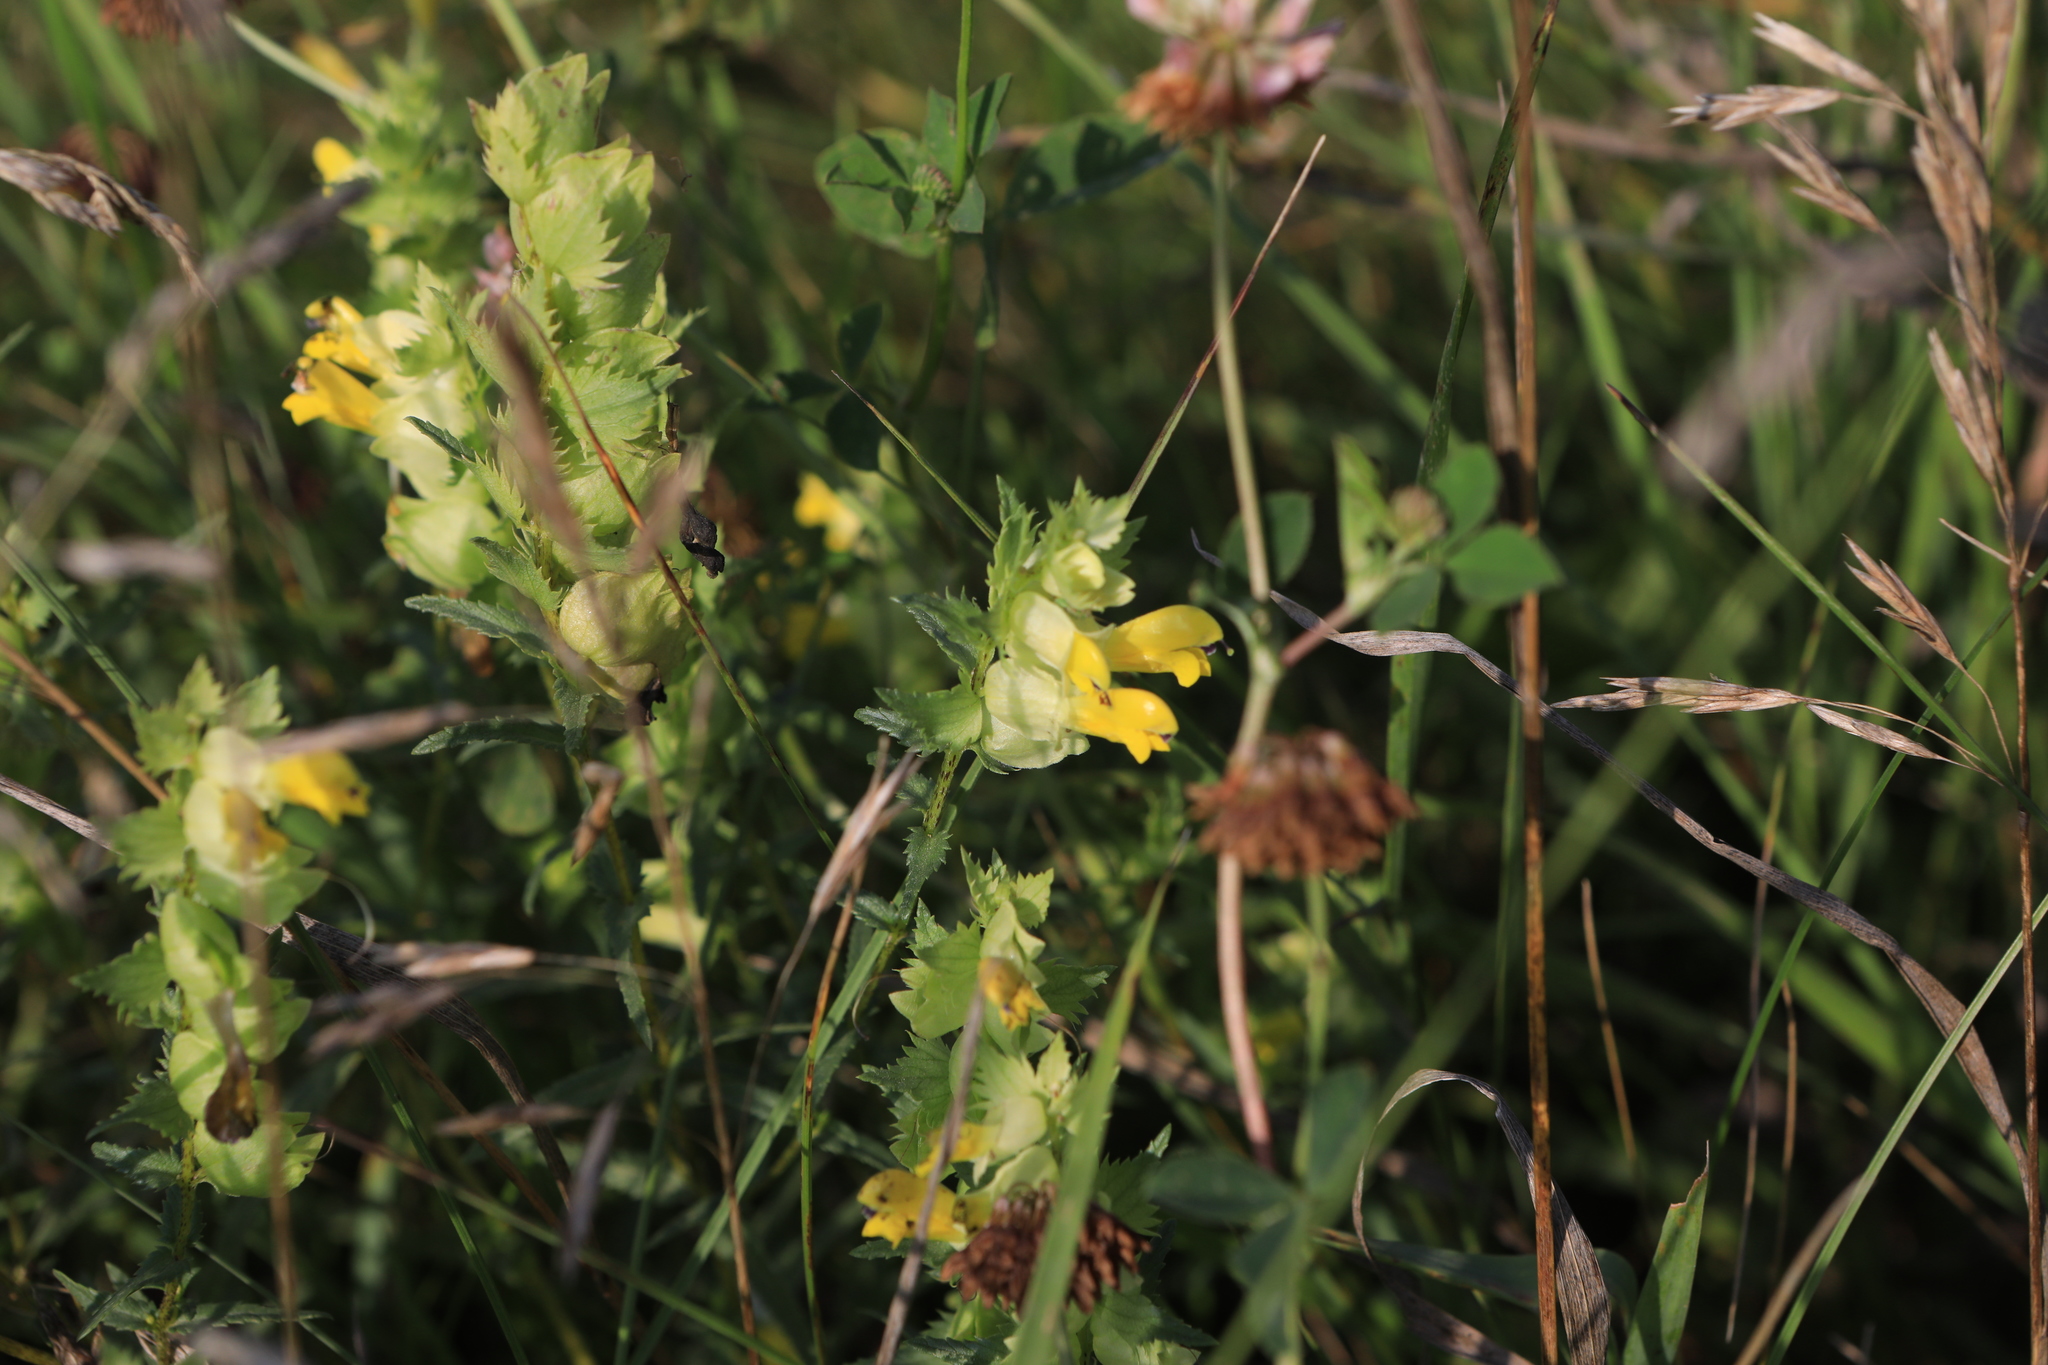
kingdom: Plantae
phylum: Tracheophyta
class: Magnoliopsida
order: Lamiales
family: Orobanchaceae
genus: Rhinanthus
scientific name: Rhinanthus serotinus
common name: Late-flowering yellow rattle
